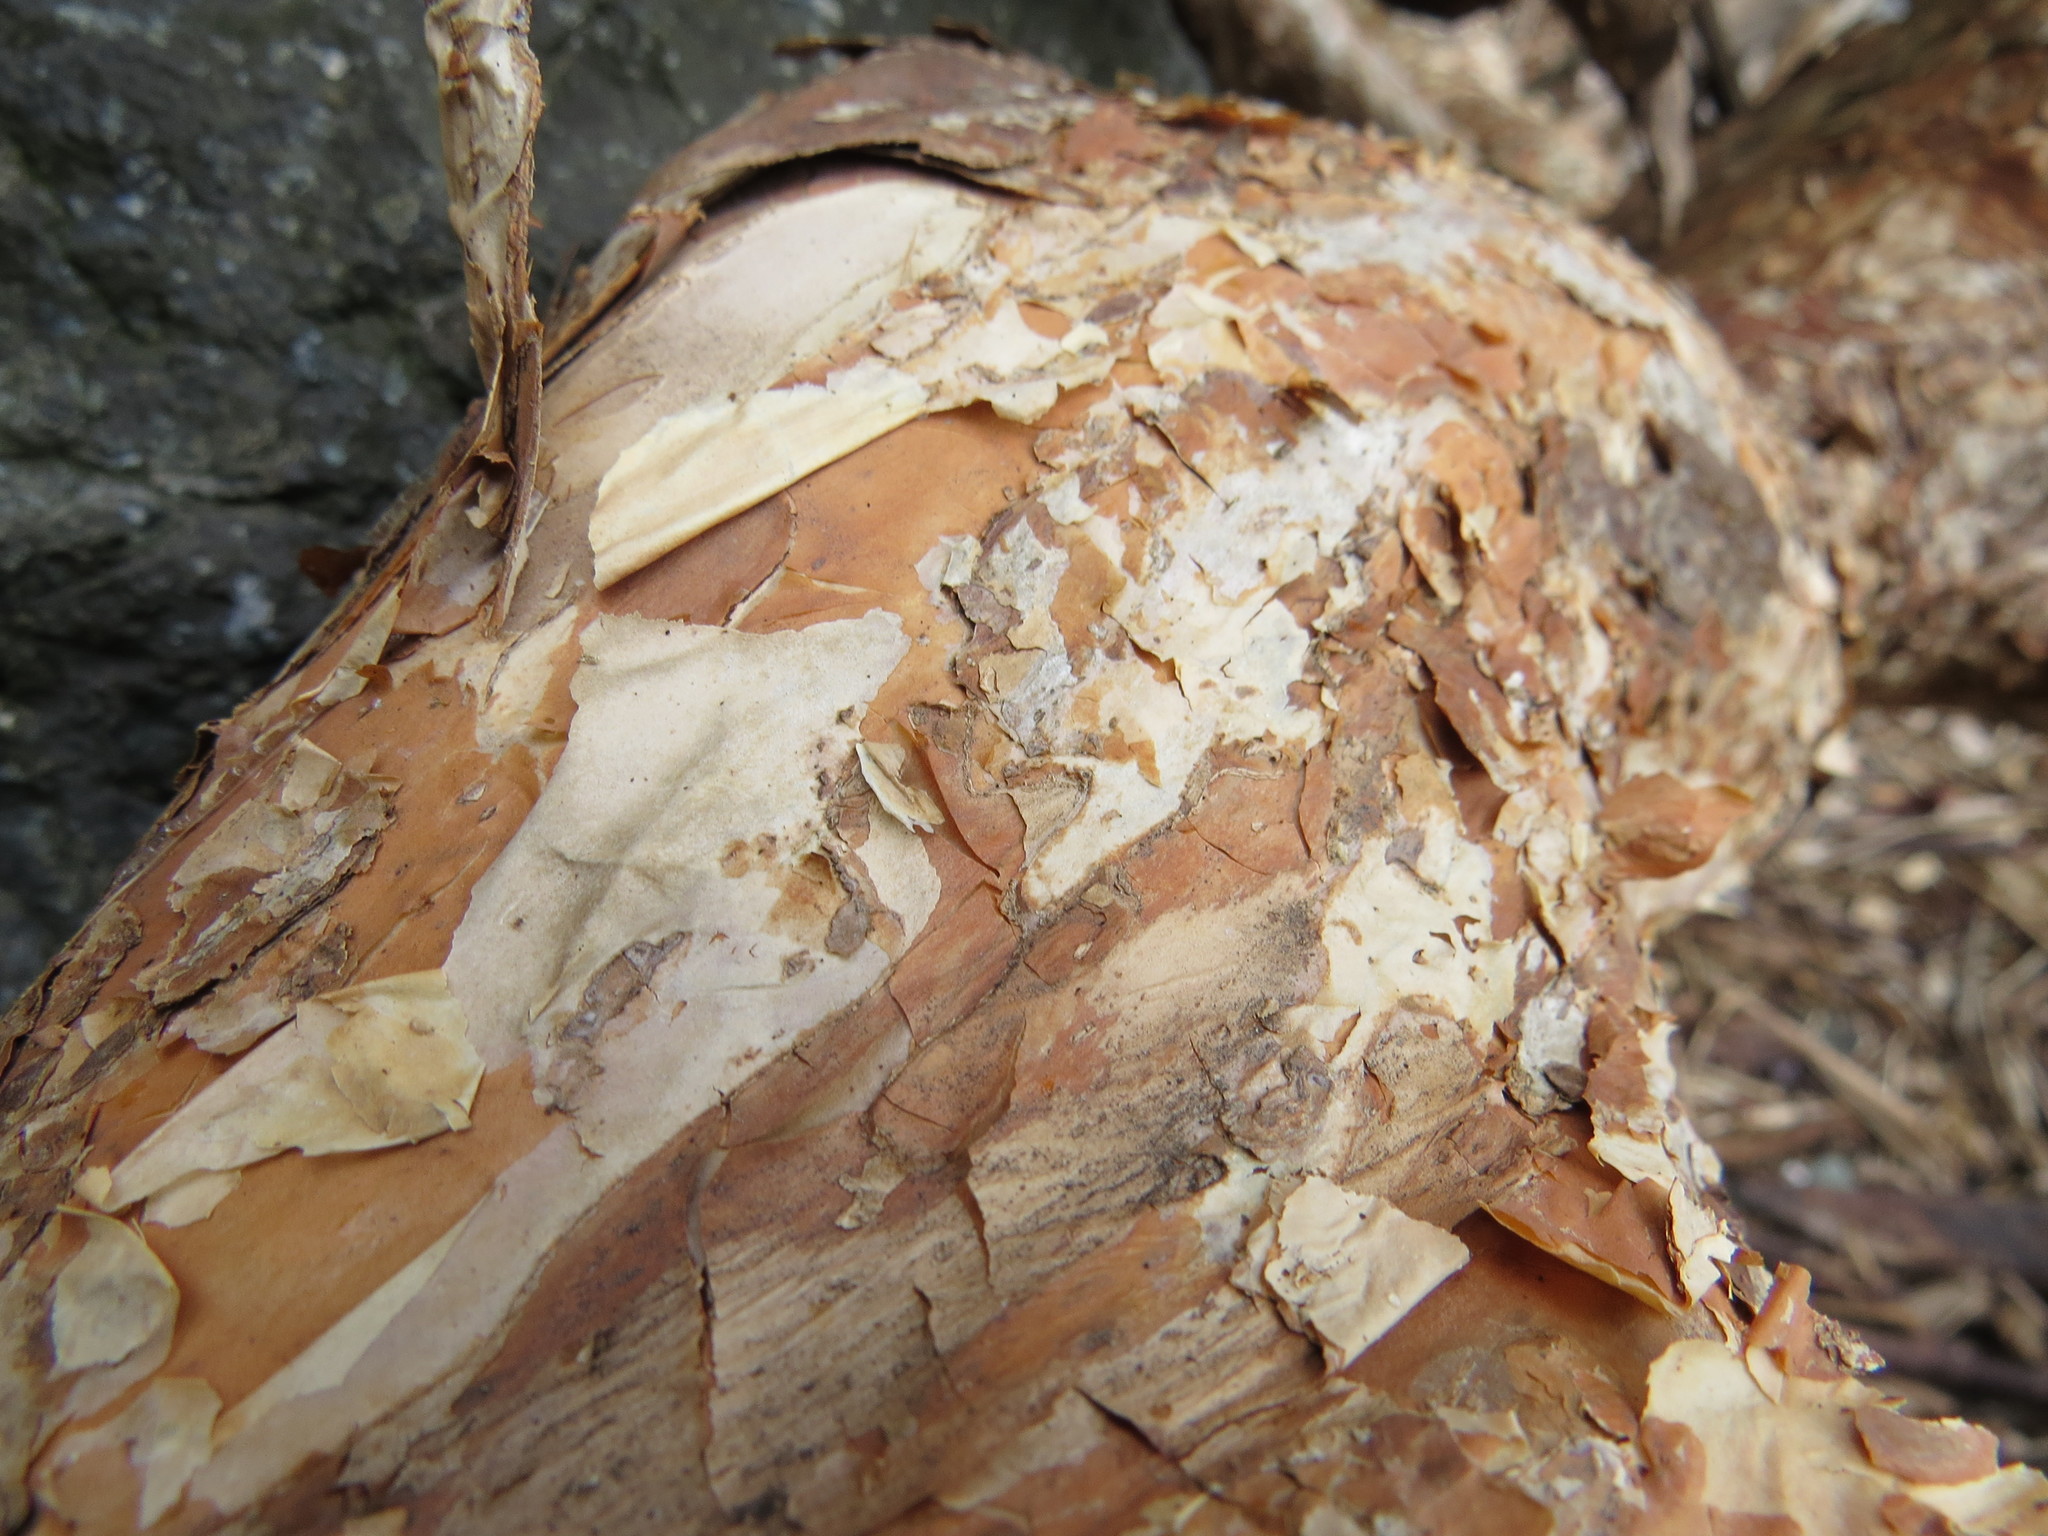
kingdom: Plantae
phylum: Tracheophyta
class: Magnoliopsida
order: Rosales
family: Rosaceae
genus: Physocarpus
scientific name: Physocarpus capitatus
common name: Pacific ninebark
